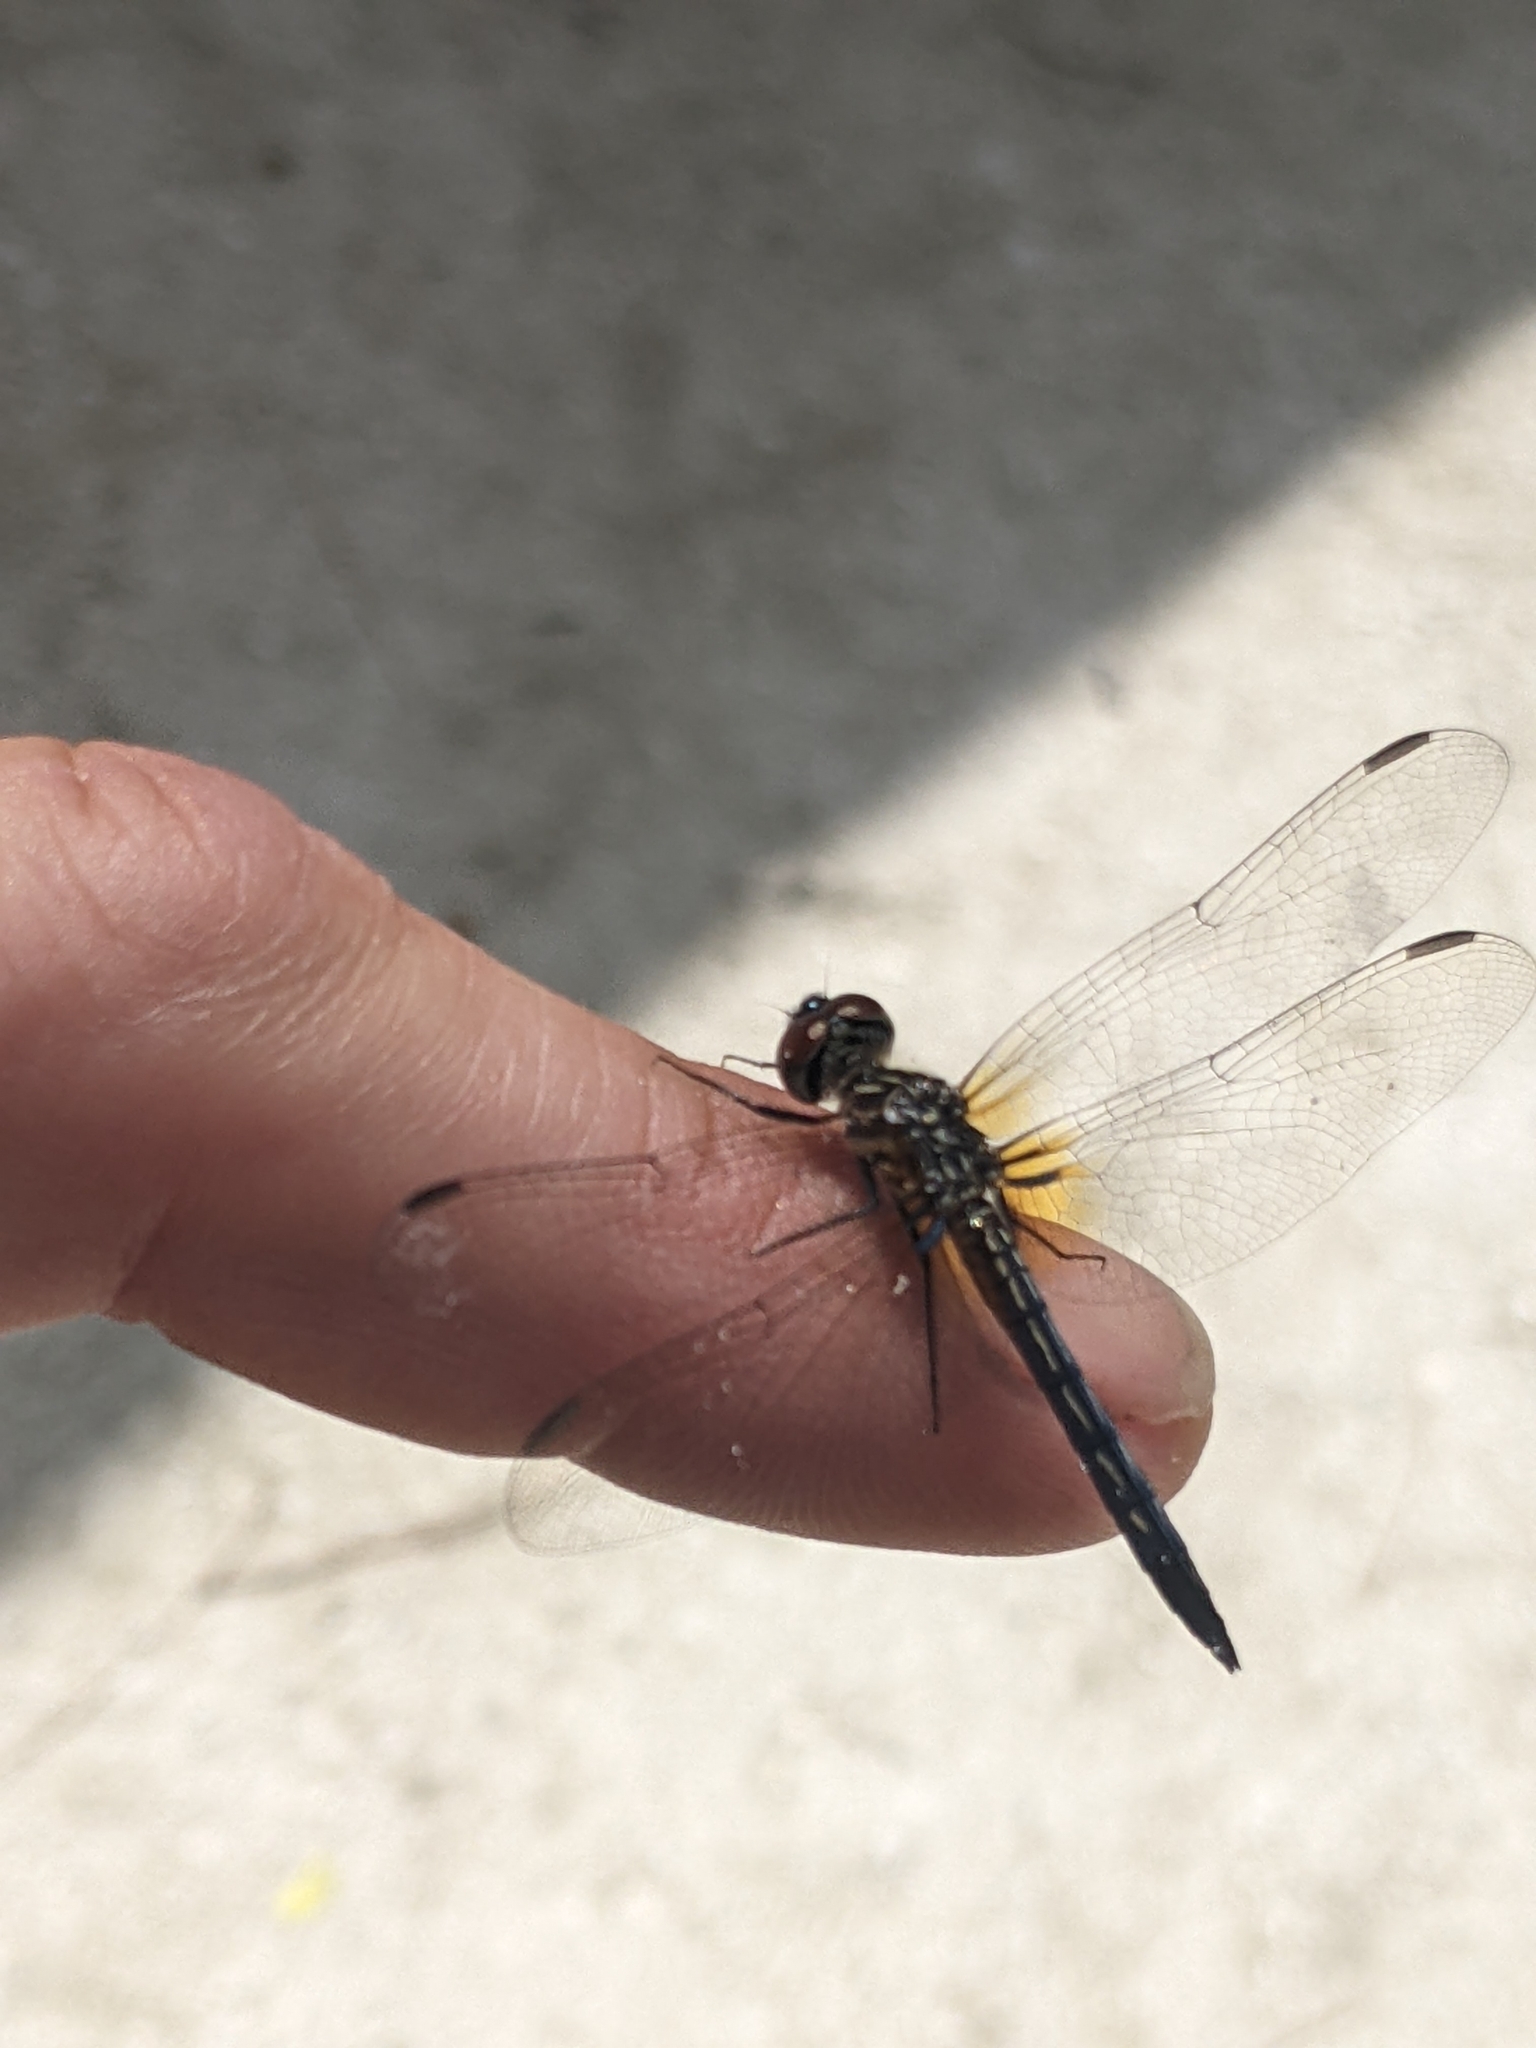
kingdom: Animalia
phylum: Arthropoda
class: Insecta
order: Odonata
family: Libellulidae
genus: Pachydiplax
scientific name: Pachydiplax longipennis
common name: Blue dasher
